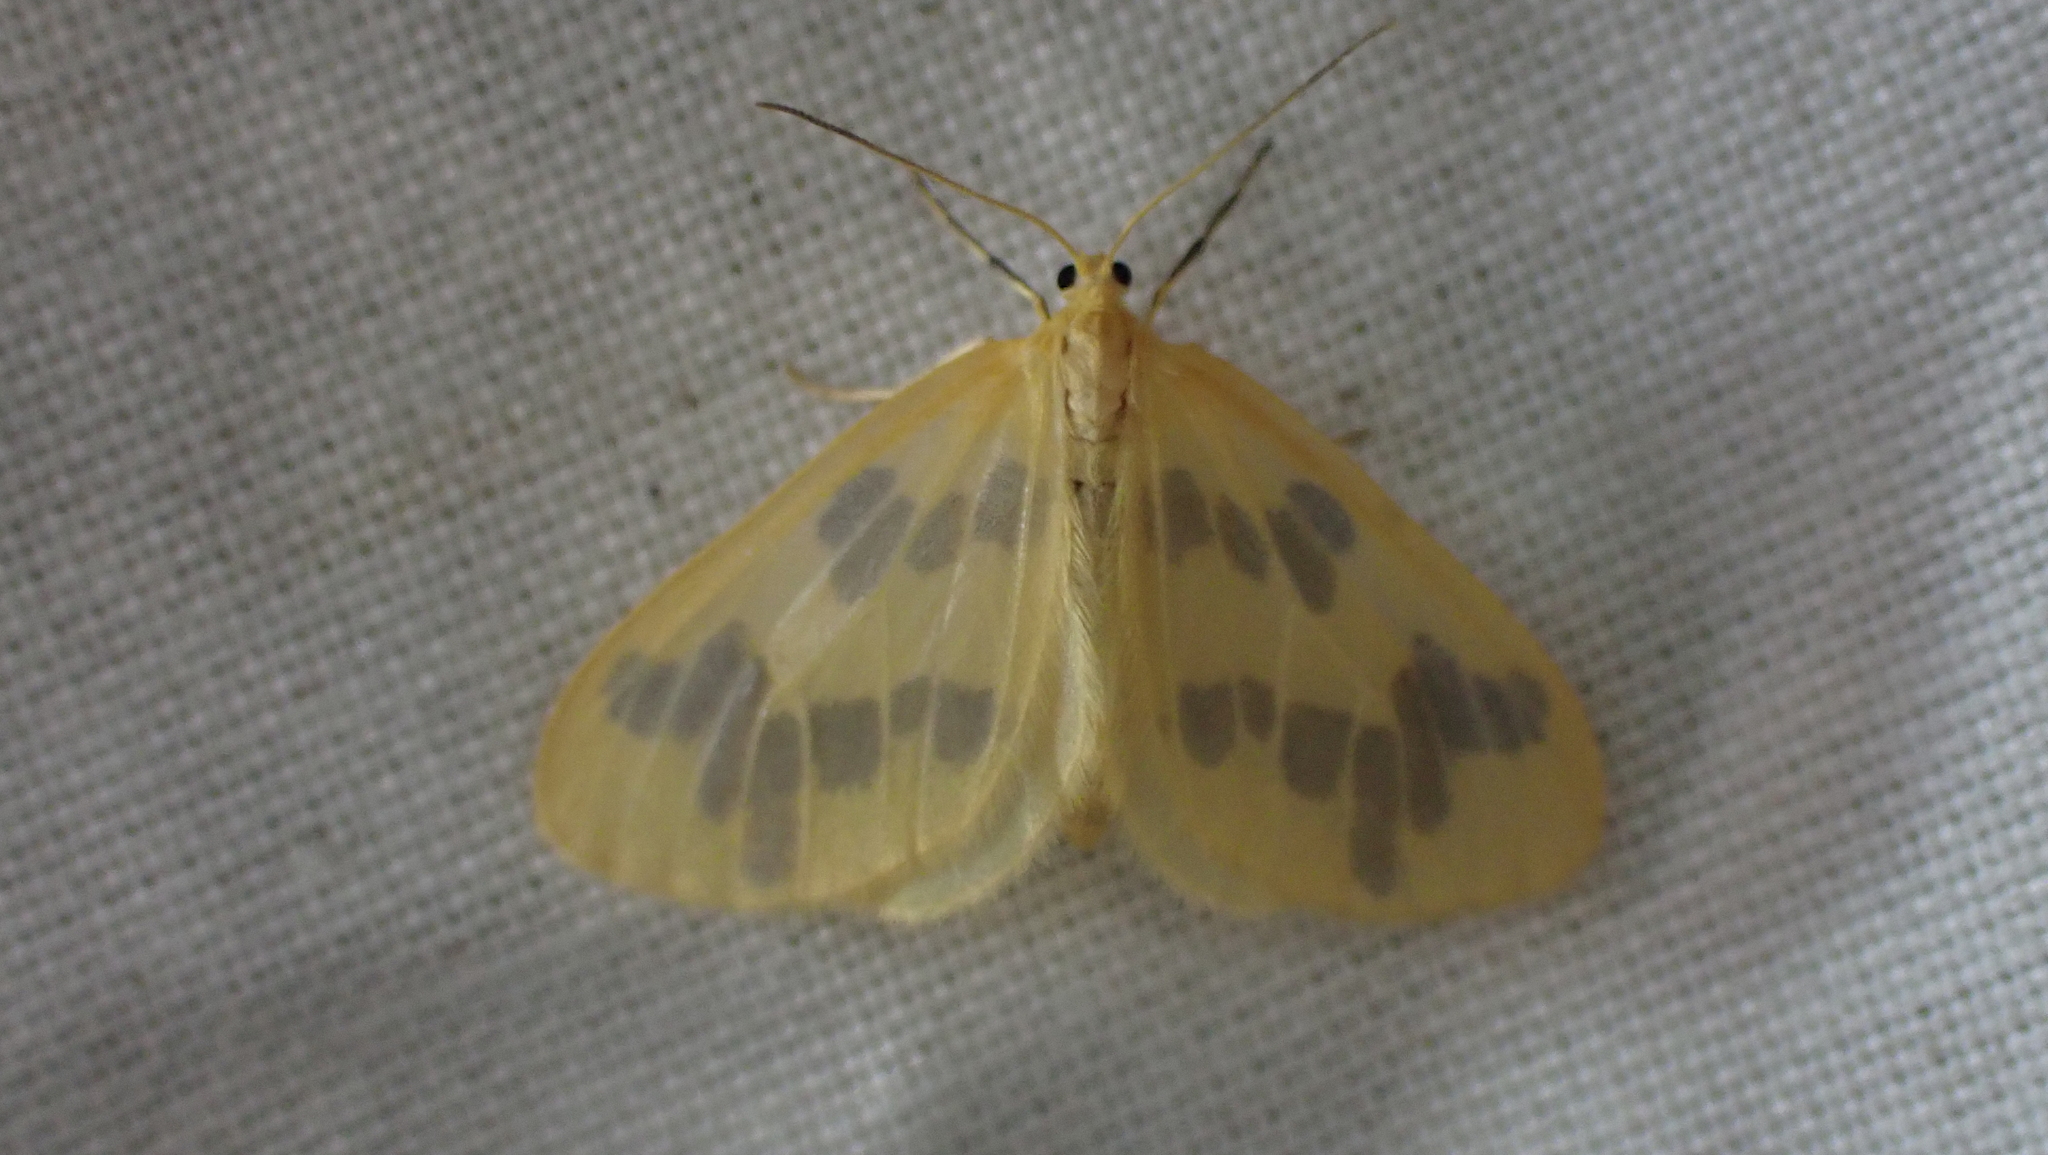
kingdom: Animalia
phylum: Arthropoda
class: Insecta
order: Lepidoptera
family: Geometridae
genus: Eubaphe
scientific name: Eubaphe mendica
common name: Beggar
